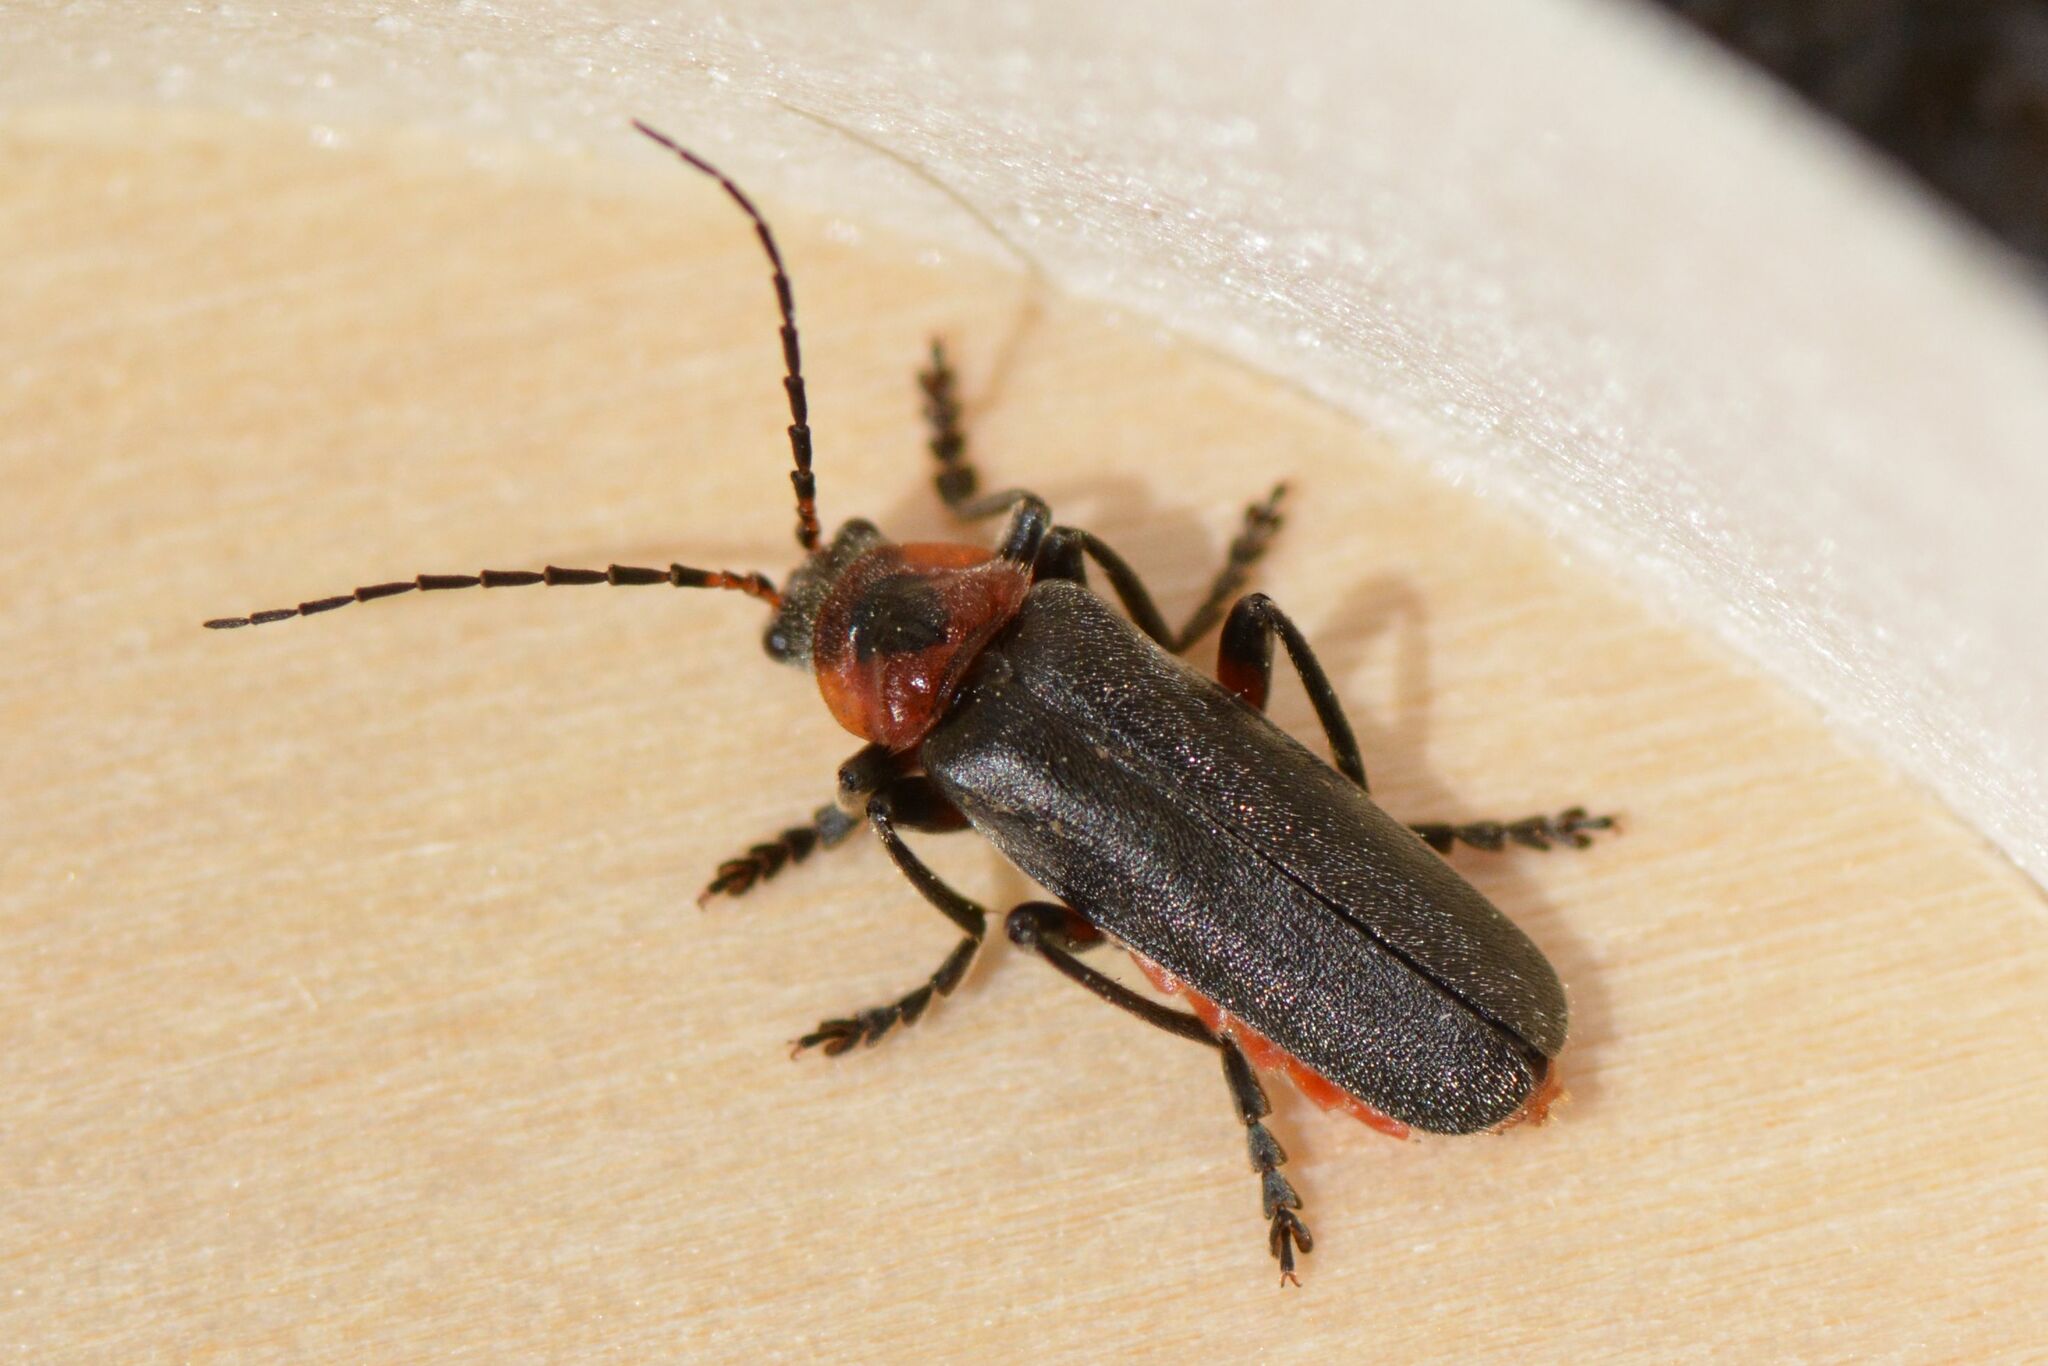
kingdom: Animalia
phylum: Arthropoda
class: Insecta
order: Coleoptera
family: Cantharidae
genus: Cantharis
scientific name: Cantharis rustica
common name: Soldier beetle
